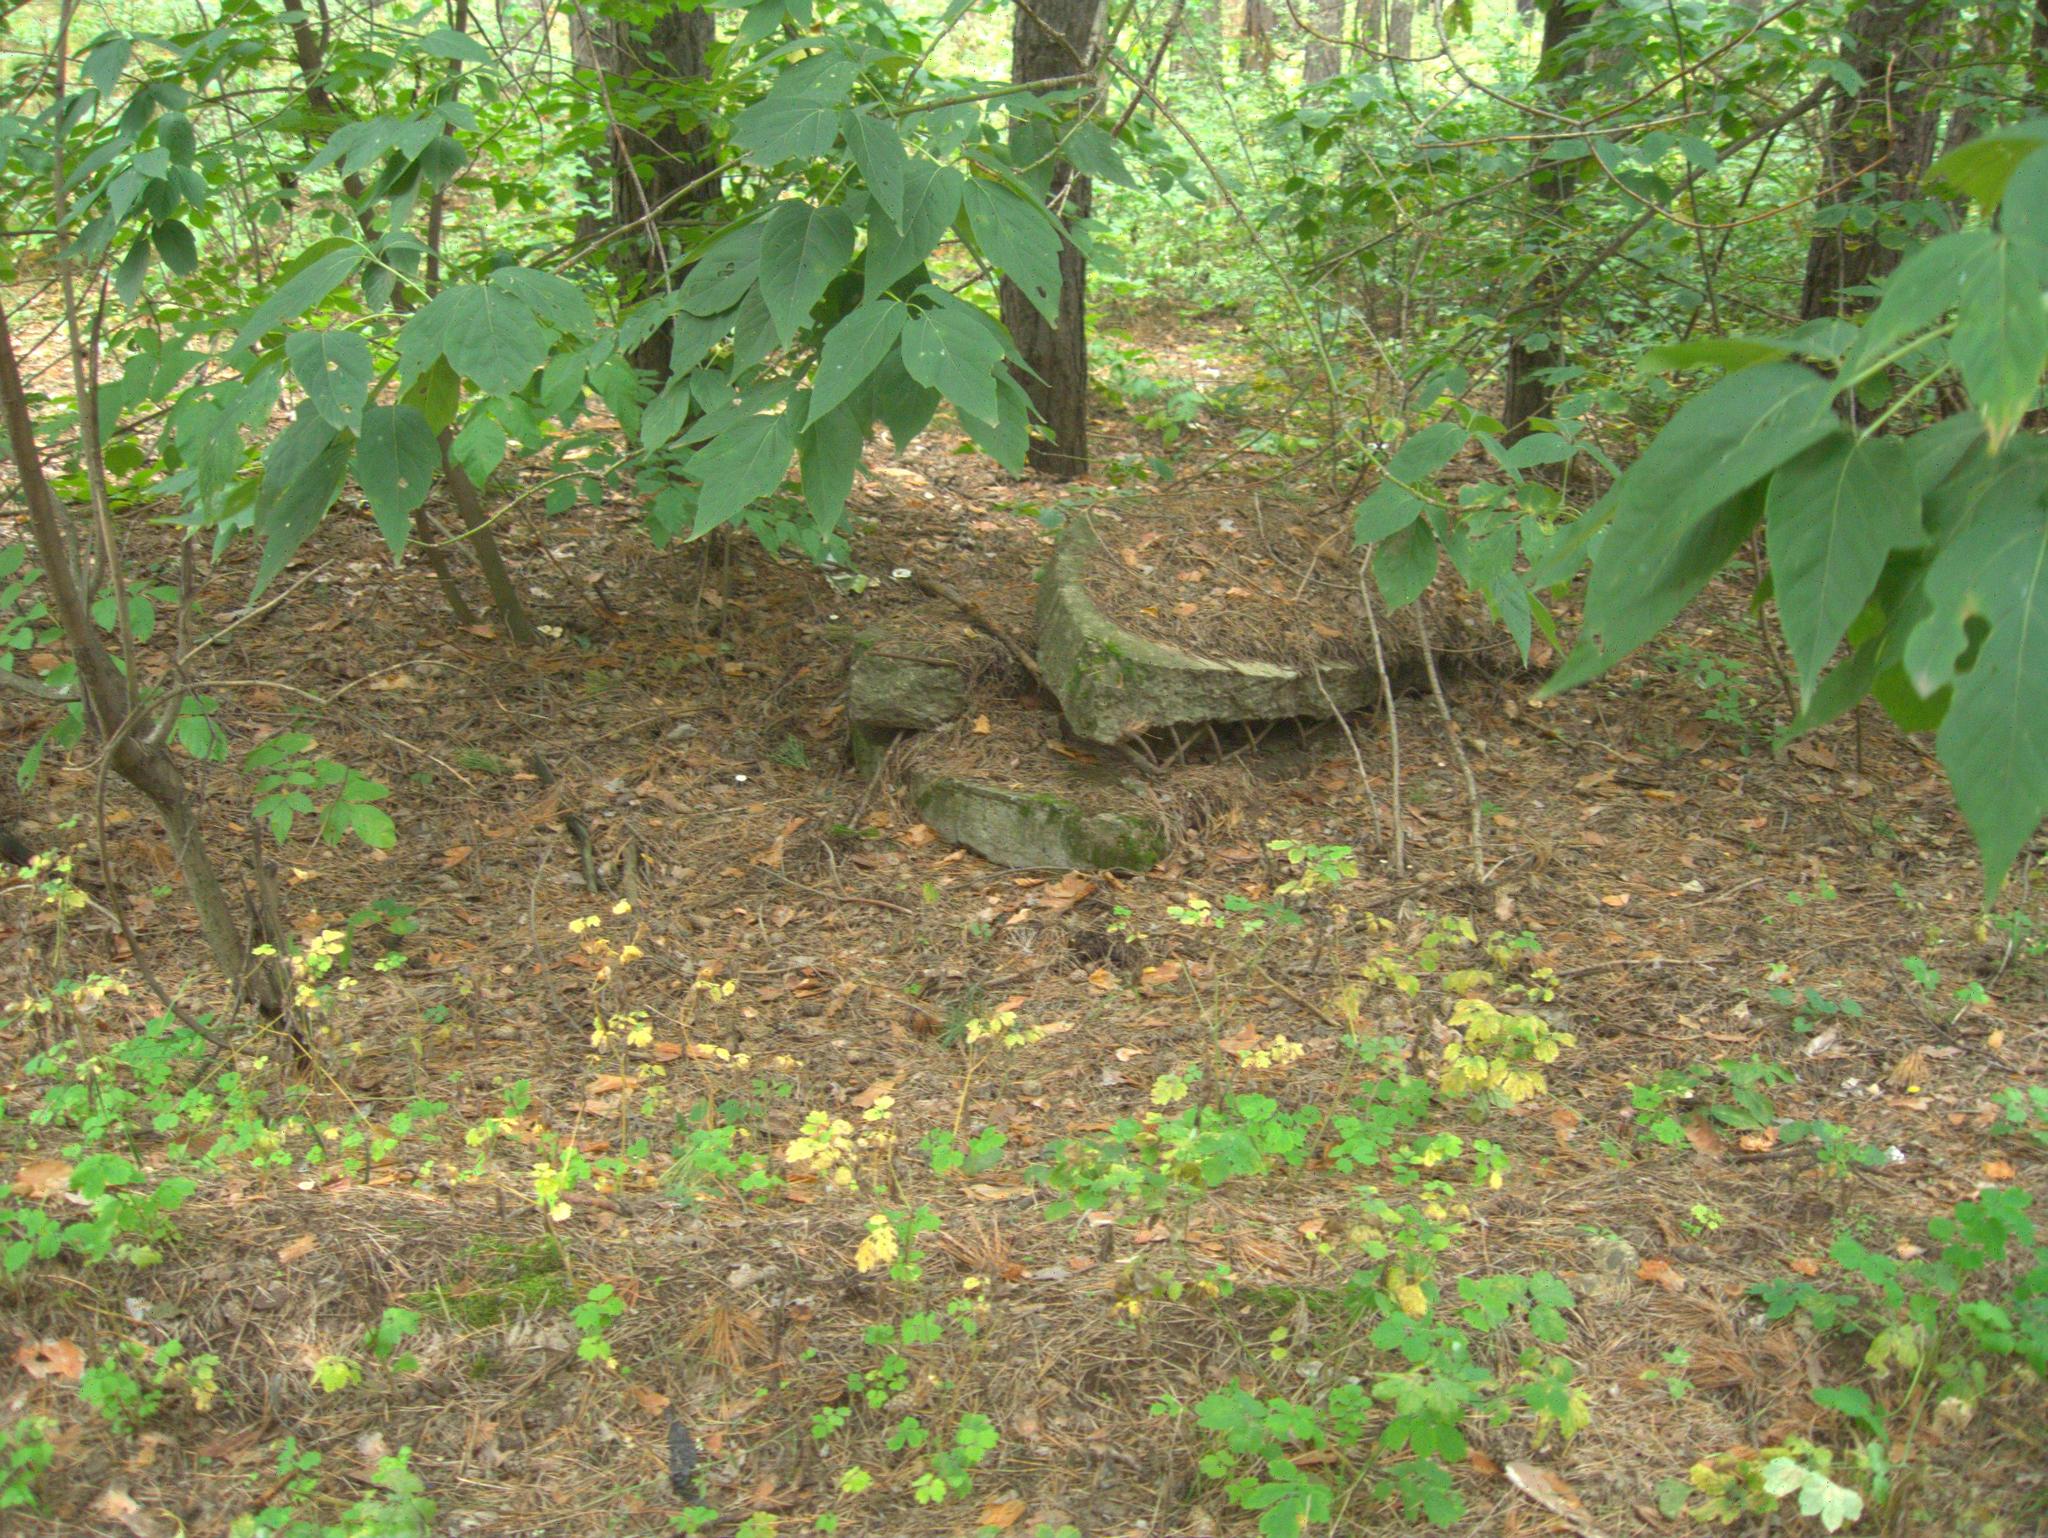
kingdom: Plantae
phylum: Tracheophyta
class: Magnoliopsida
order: Sapindales
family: Sapindaceae
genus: Acer
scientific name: Acer negundo
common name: Ashleaf maple
